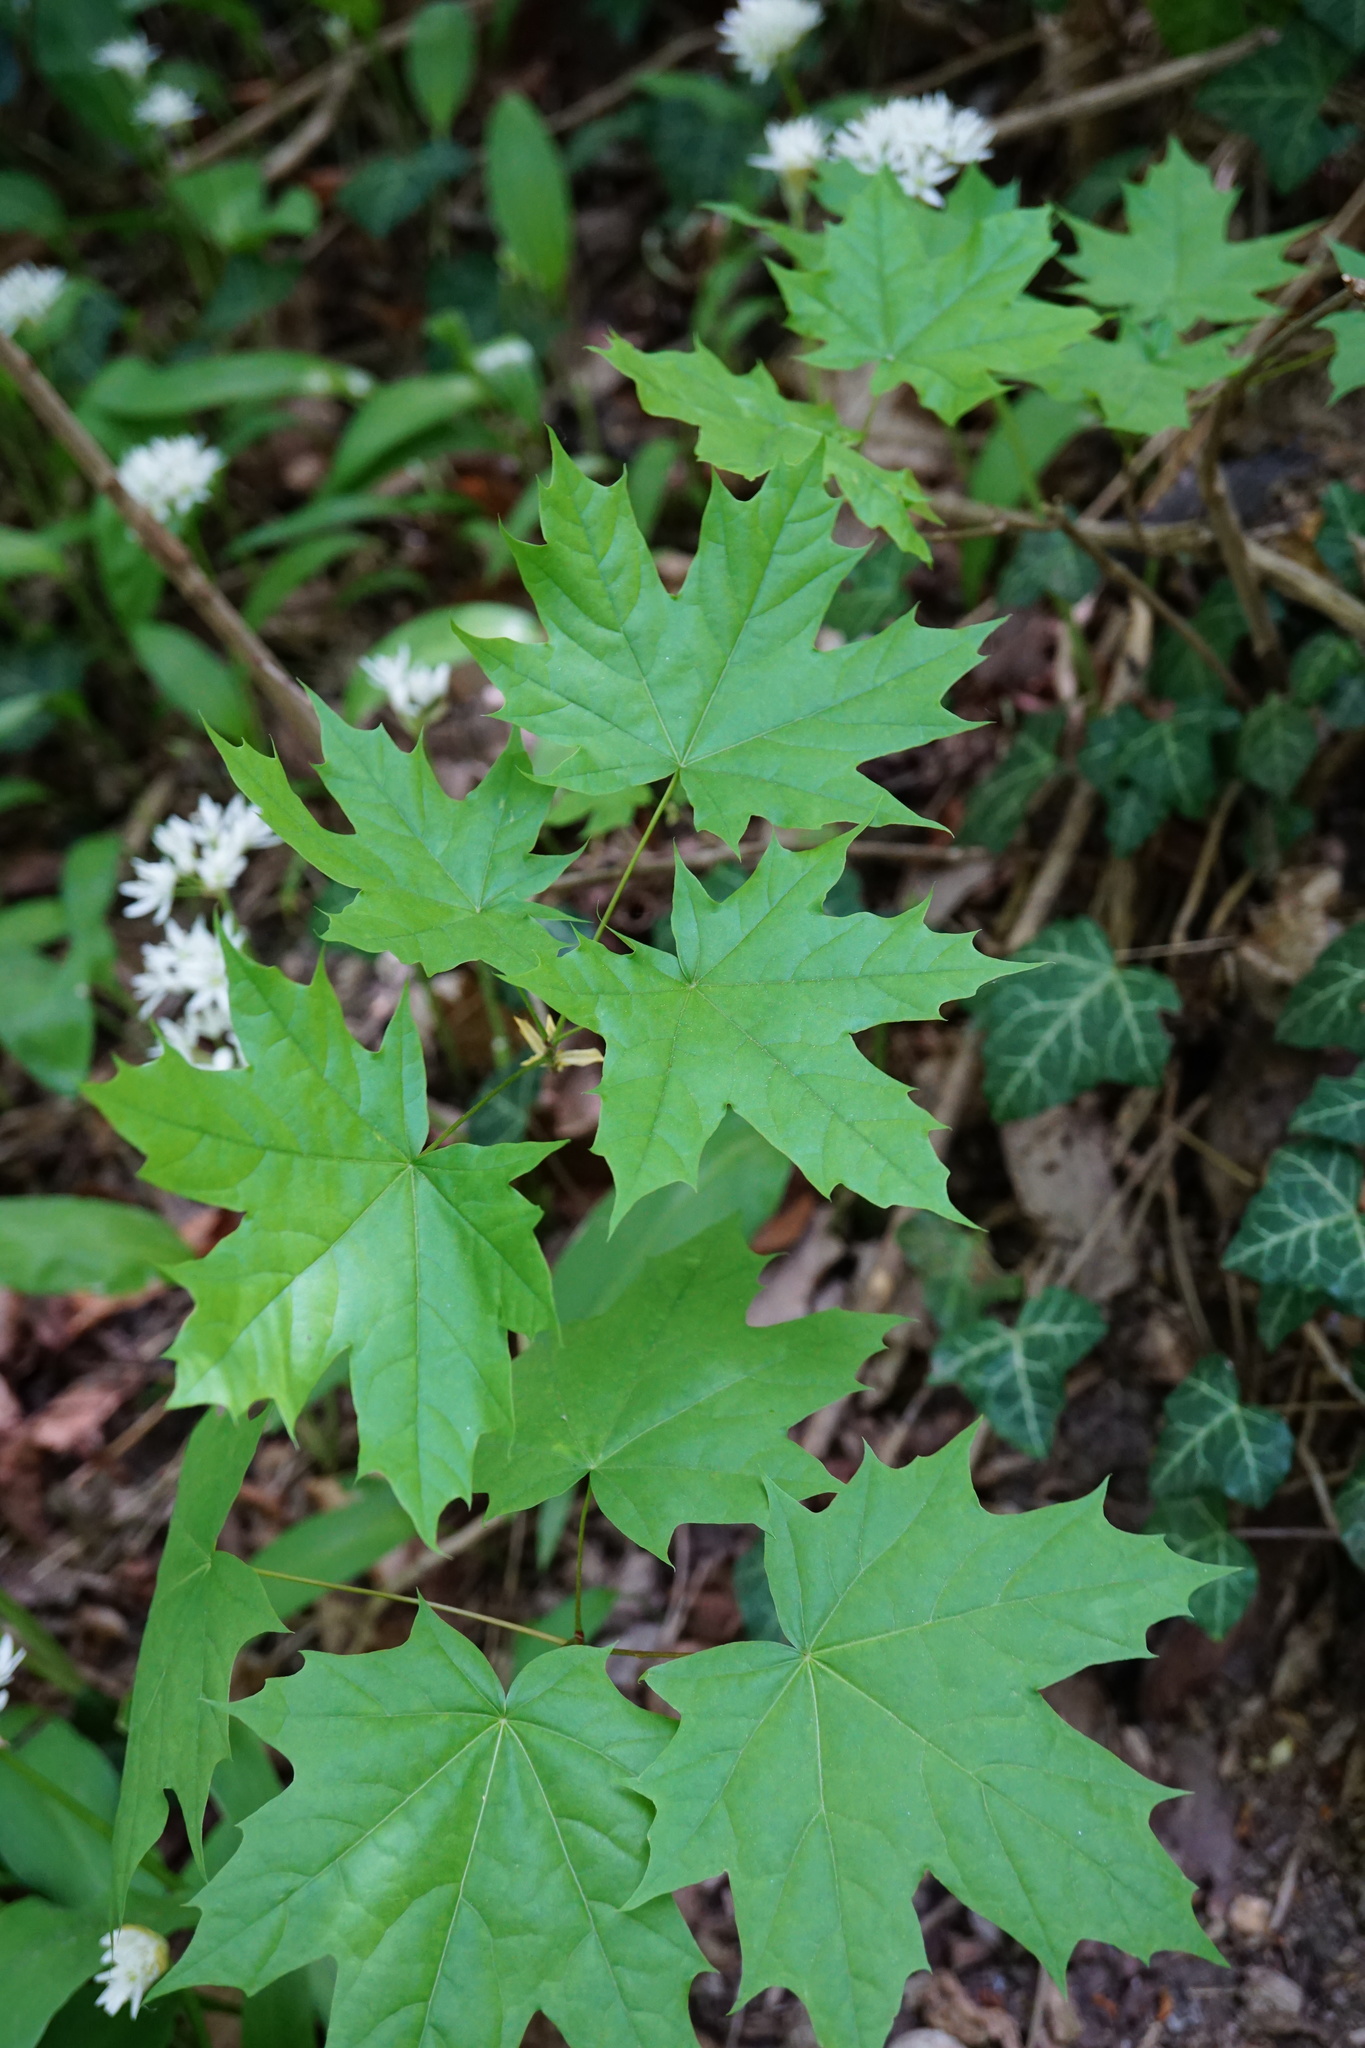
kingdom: Plantae
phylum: Tracheophyta
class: Magnoliopsida
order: Sapindales
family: Sapindaceae
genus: Acer
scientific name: Acer platanoides
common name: Norway maple
